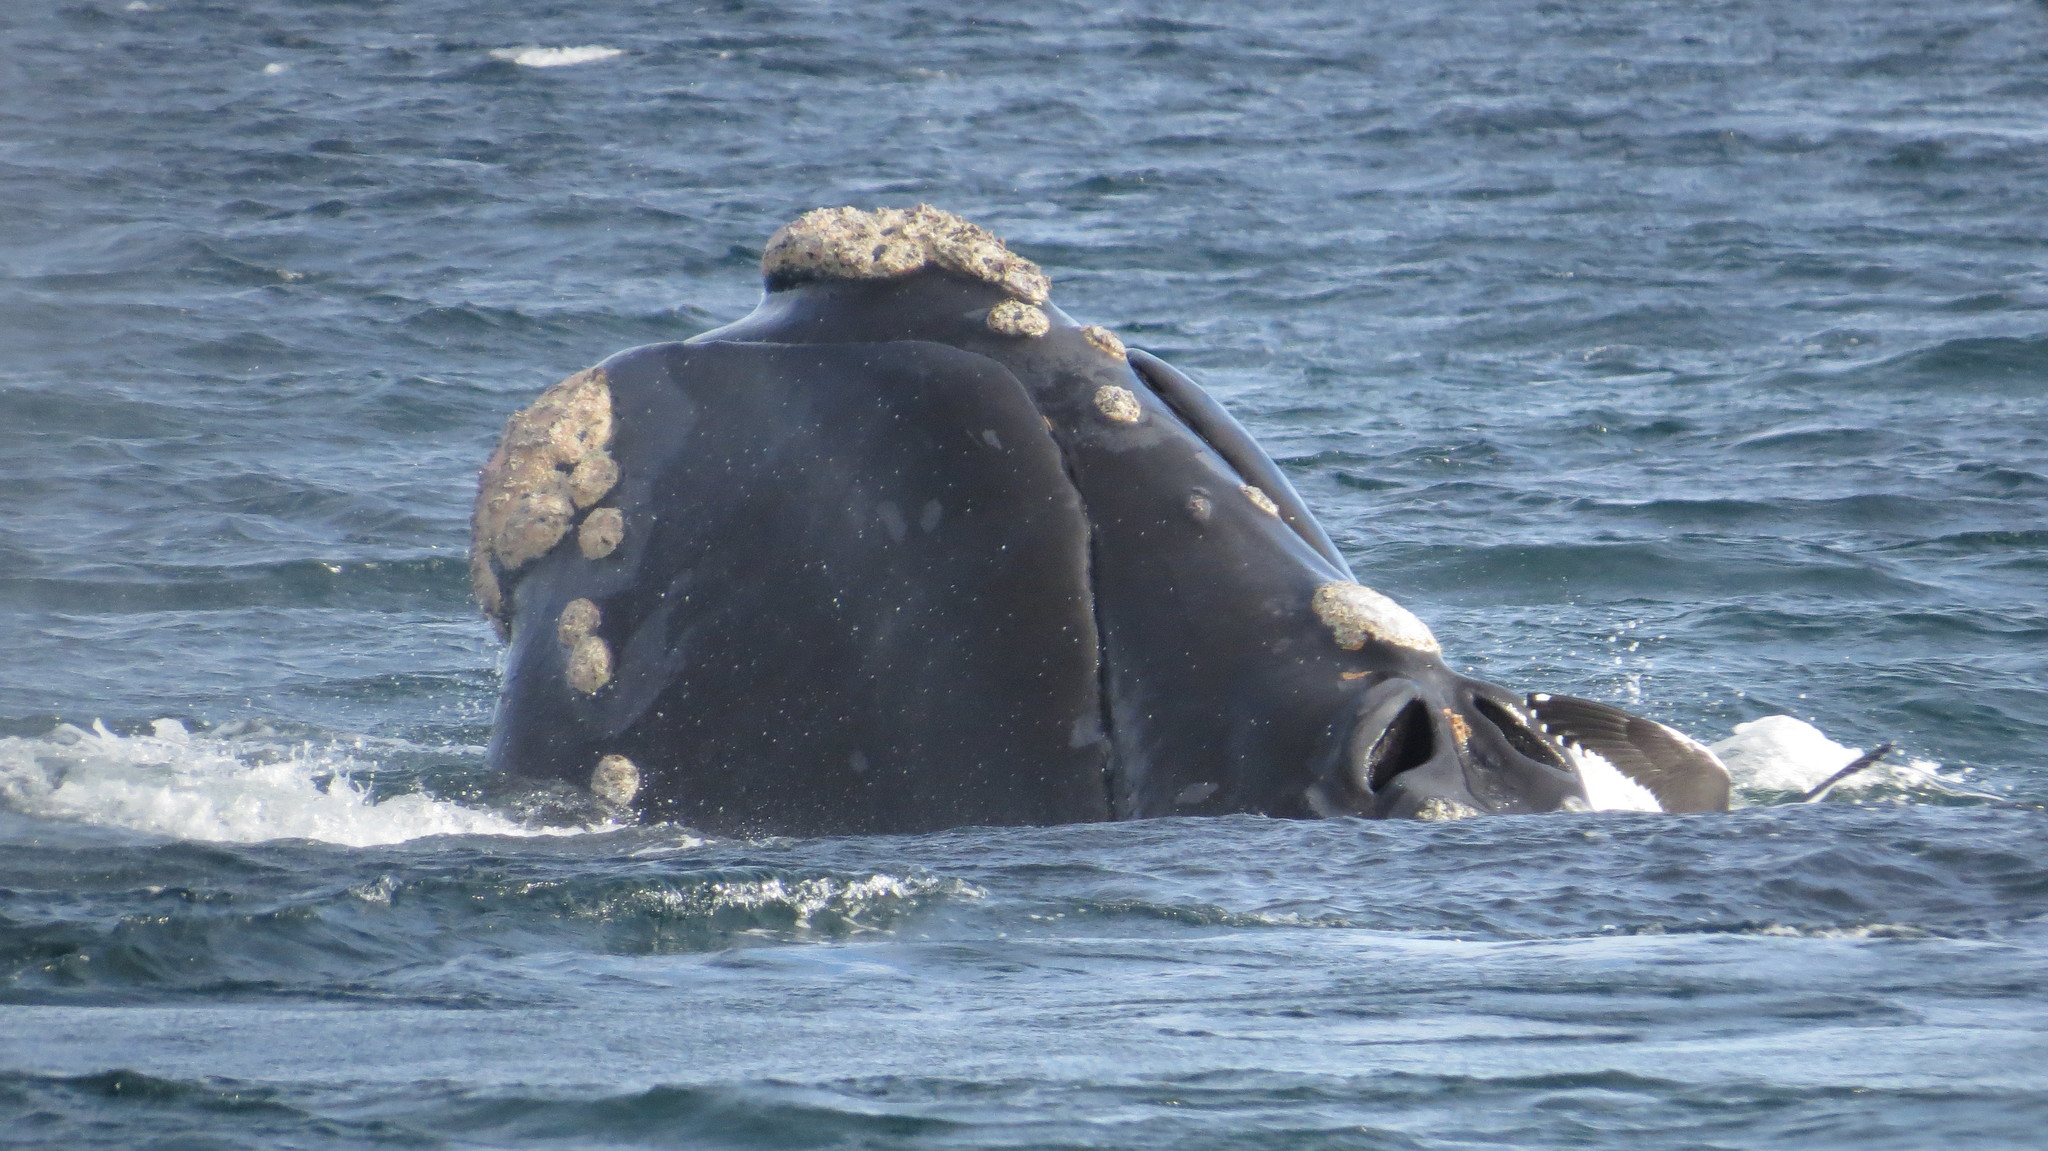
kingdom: Animalia
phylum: Chordata
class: Mammalia
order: Cetacea
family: Balaenidae
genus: Eubalaena
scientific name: Eubalaena australis
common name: Southern right whale
